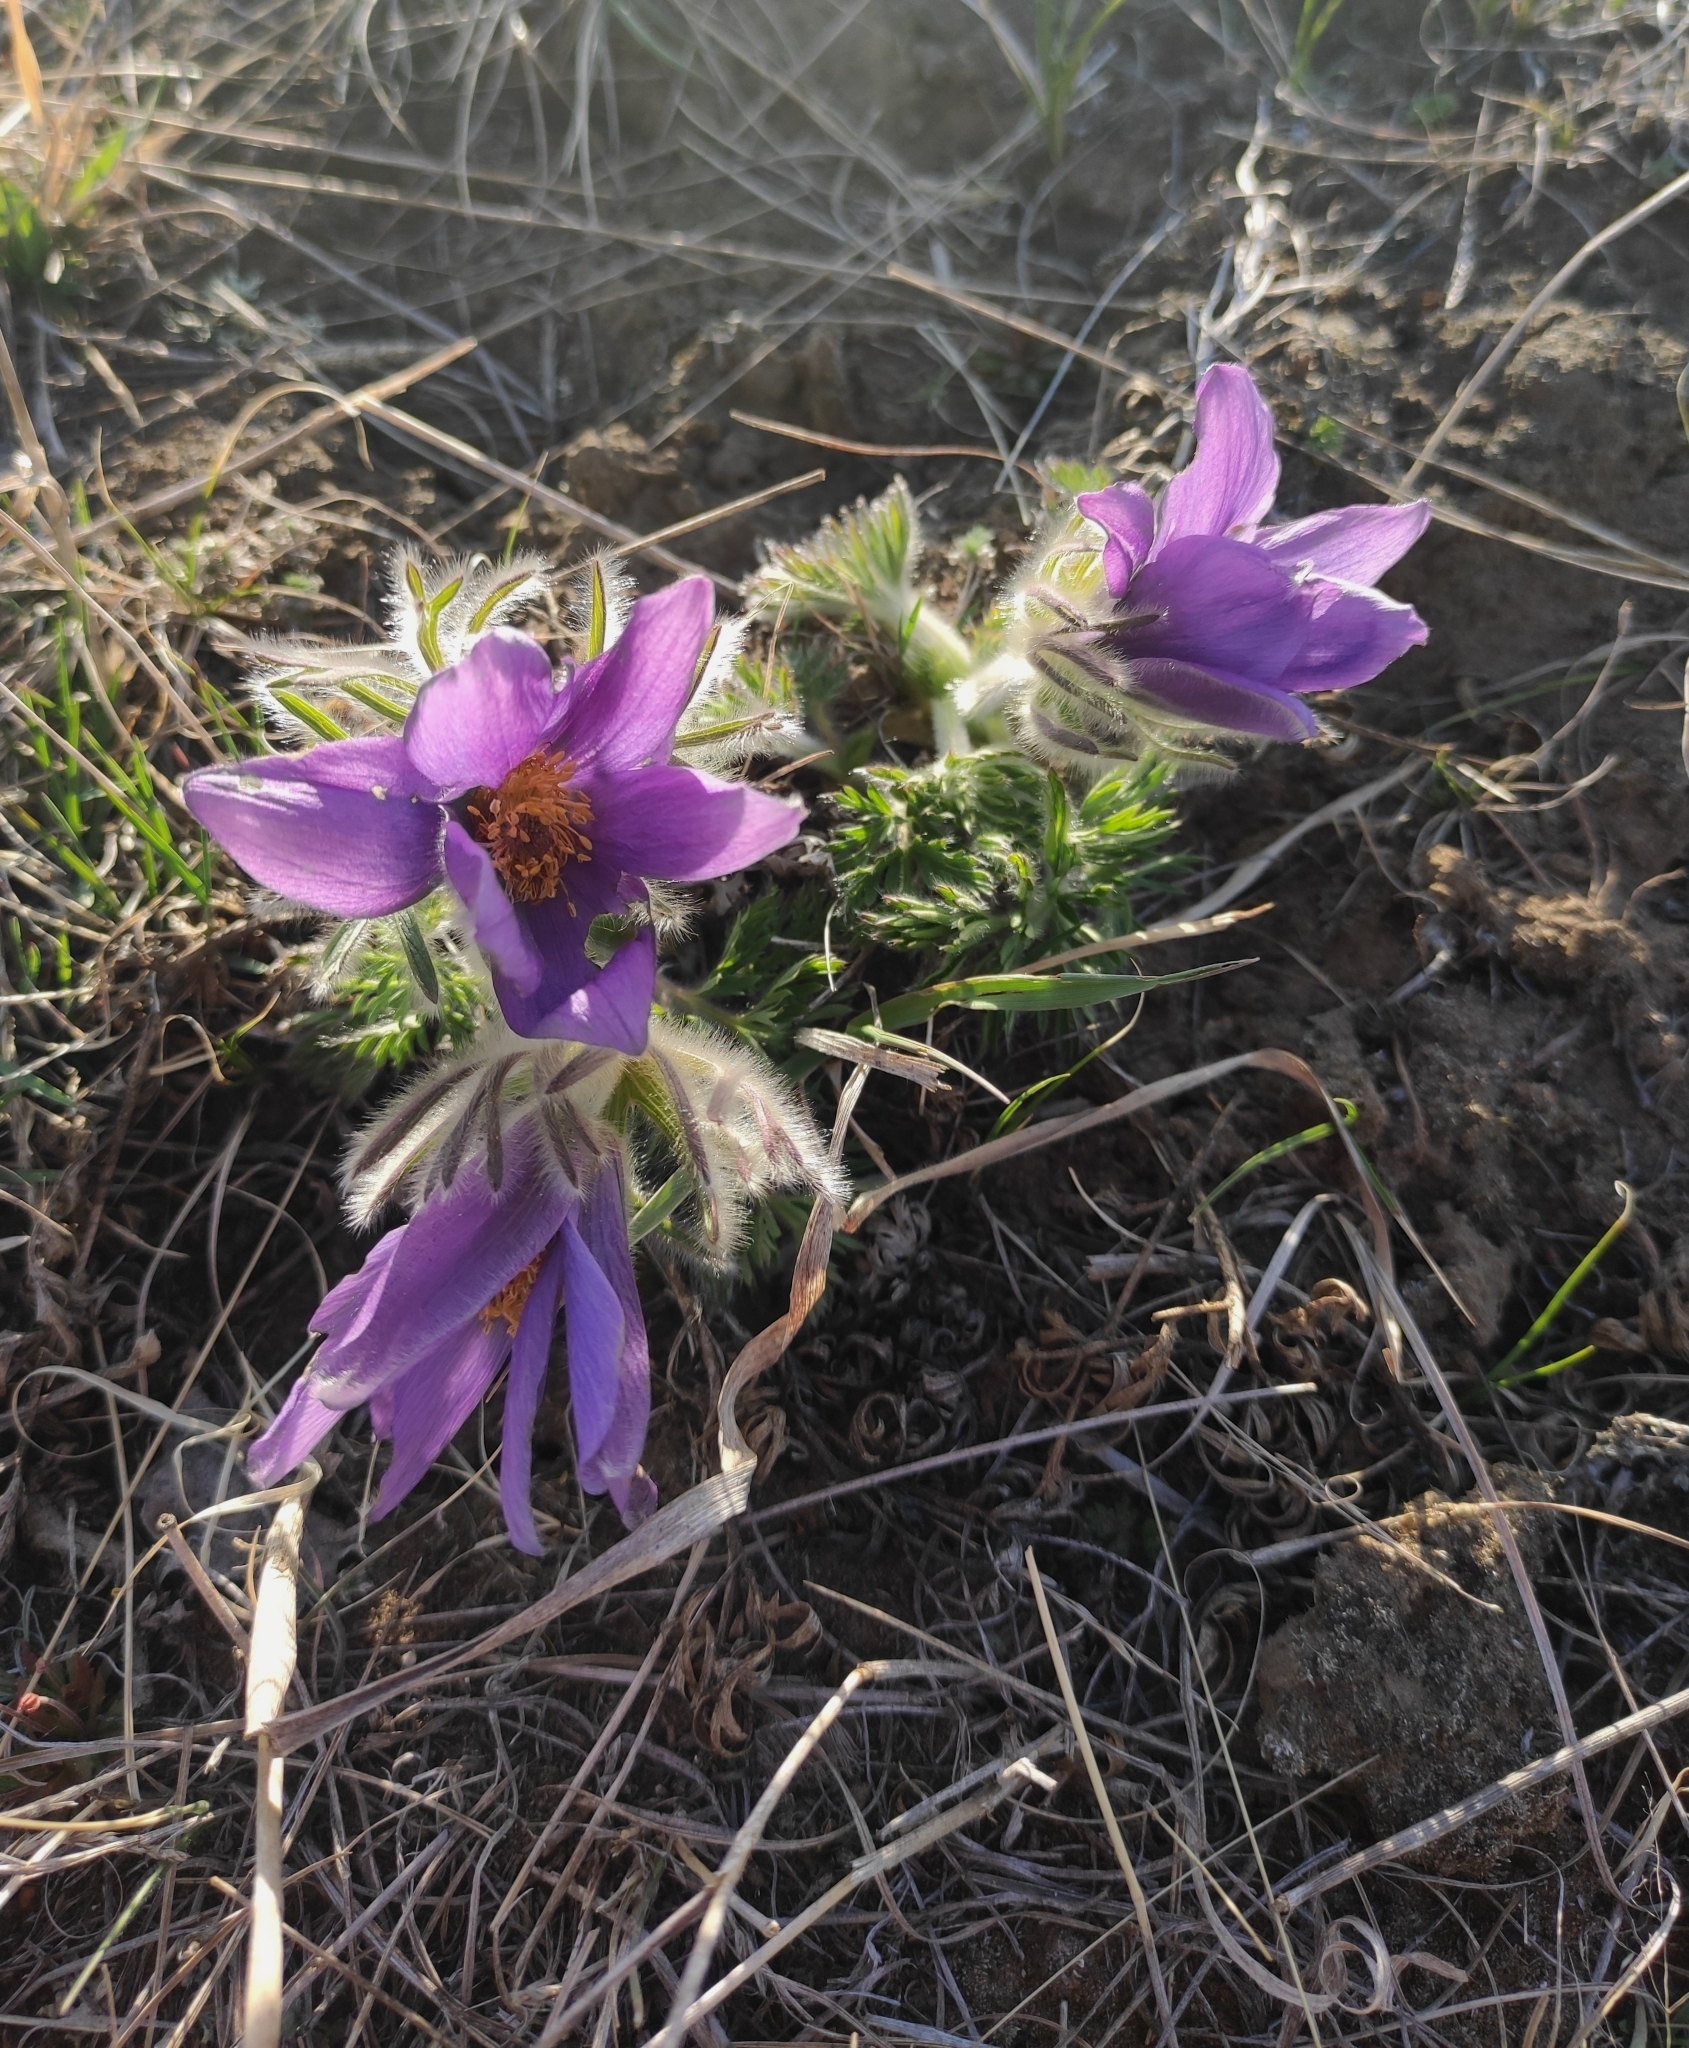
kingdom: Plantae
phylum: Tracheophyta
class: Magnoliopsida
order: Ranunculales
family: Ranunculaceae
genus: Pulsatilla
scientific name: Pulsatilla turczaninovii
